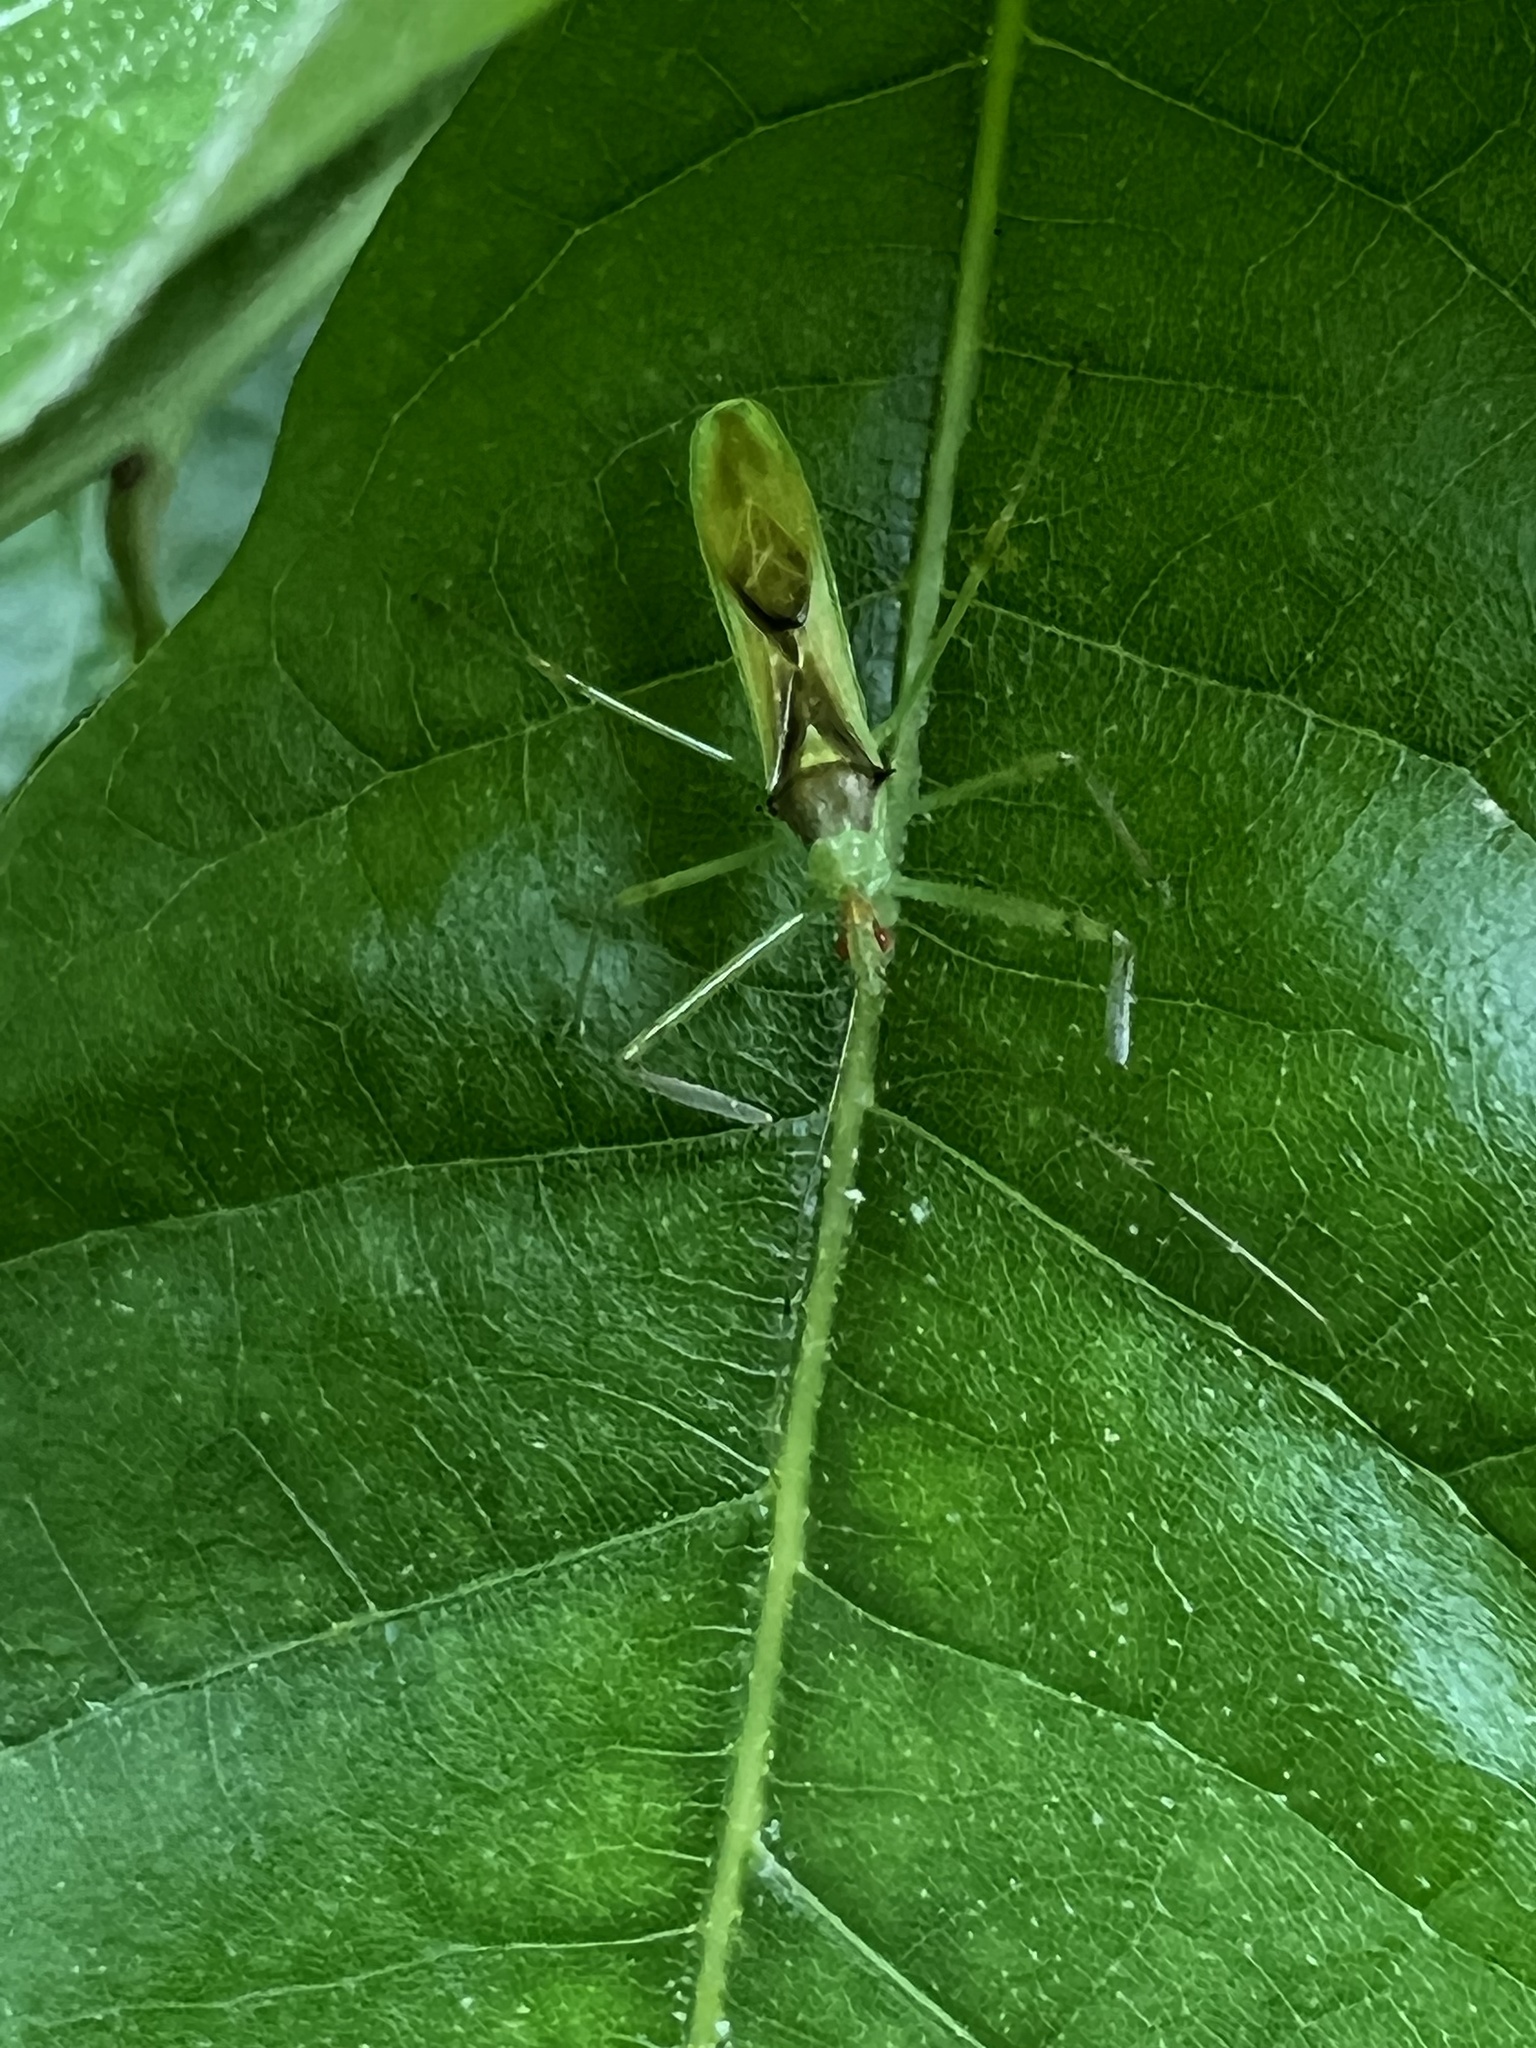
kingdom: Animalia
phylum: Arthropoda
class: Insecta
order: Hemiptera
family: Reduviidae
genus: Zelus
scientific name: Zelus luridus
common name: Pale green assassin bug
